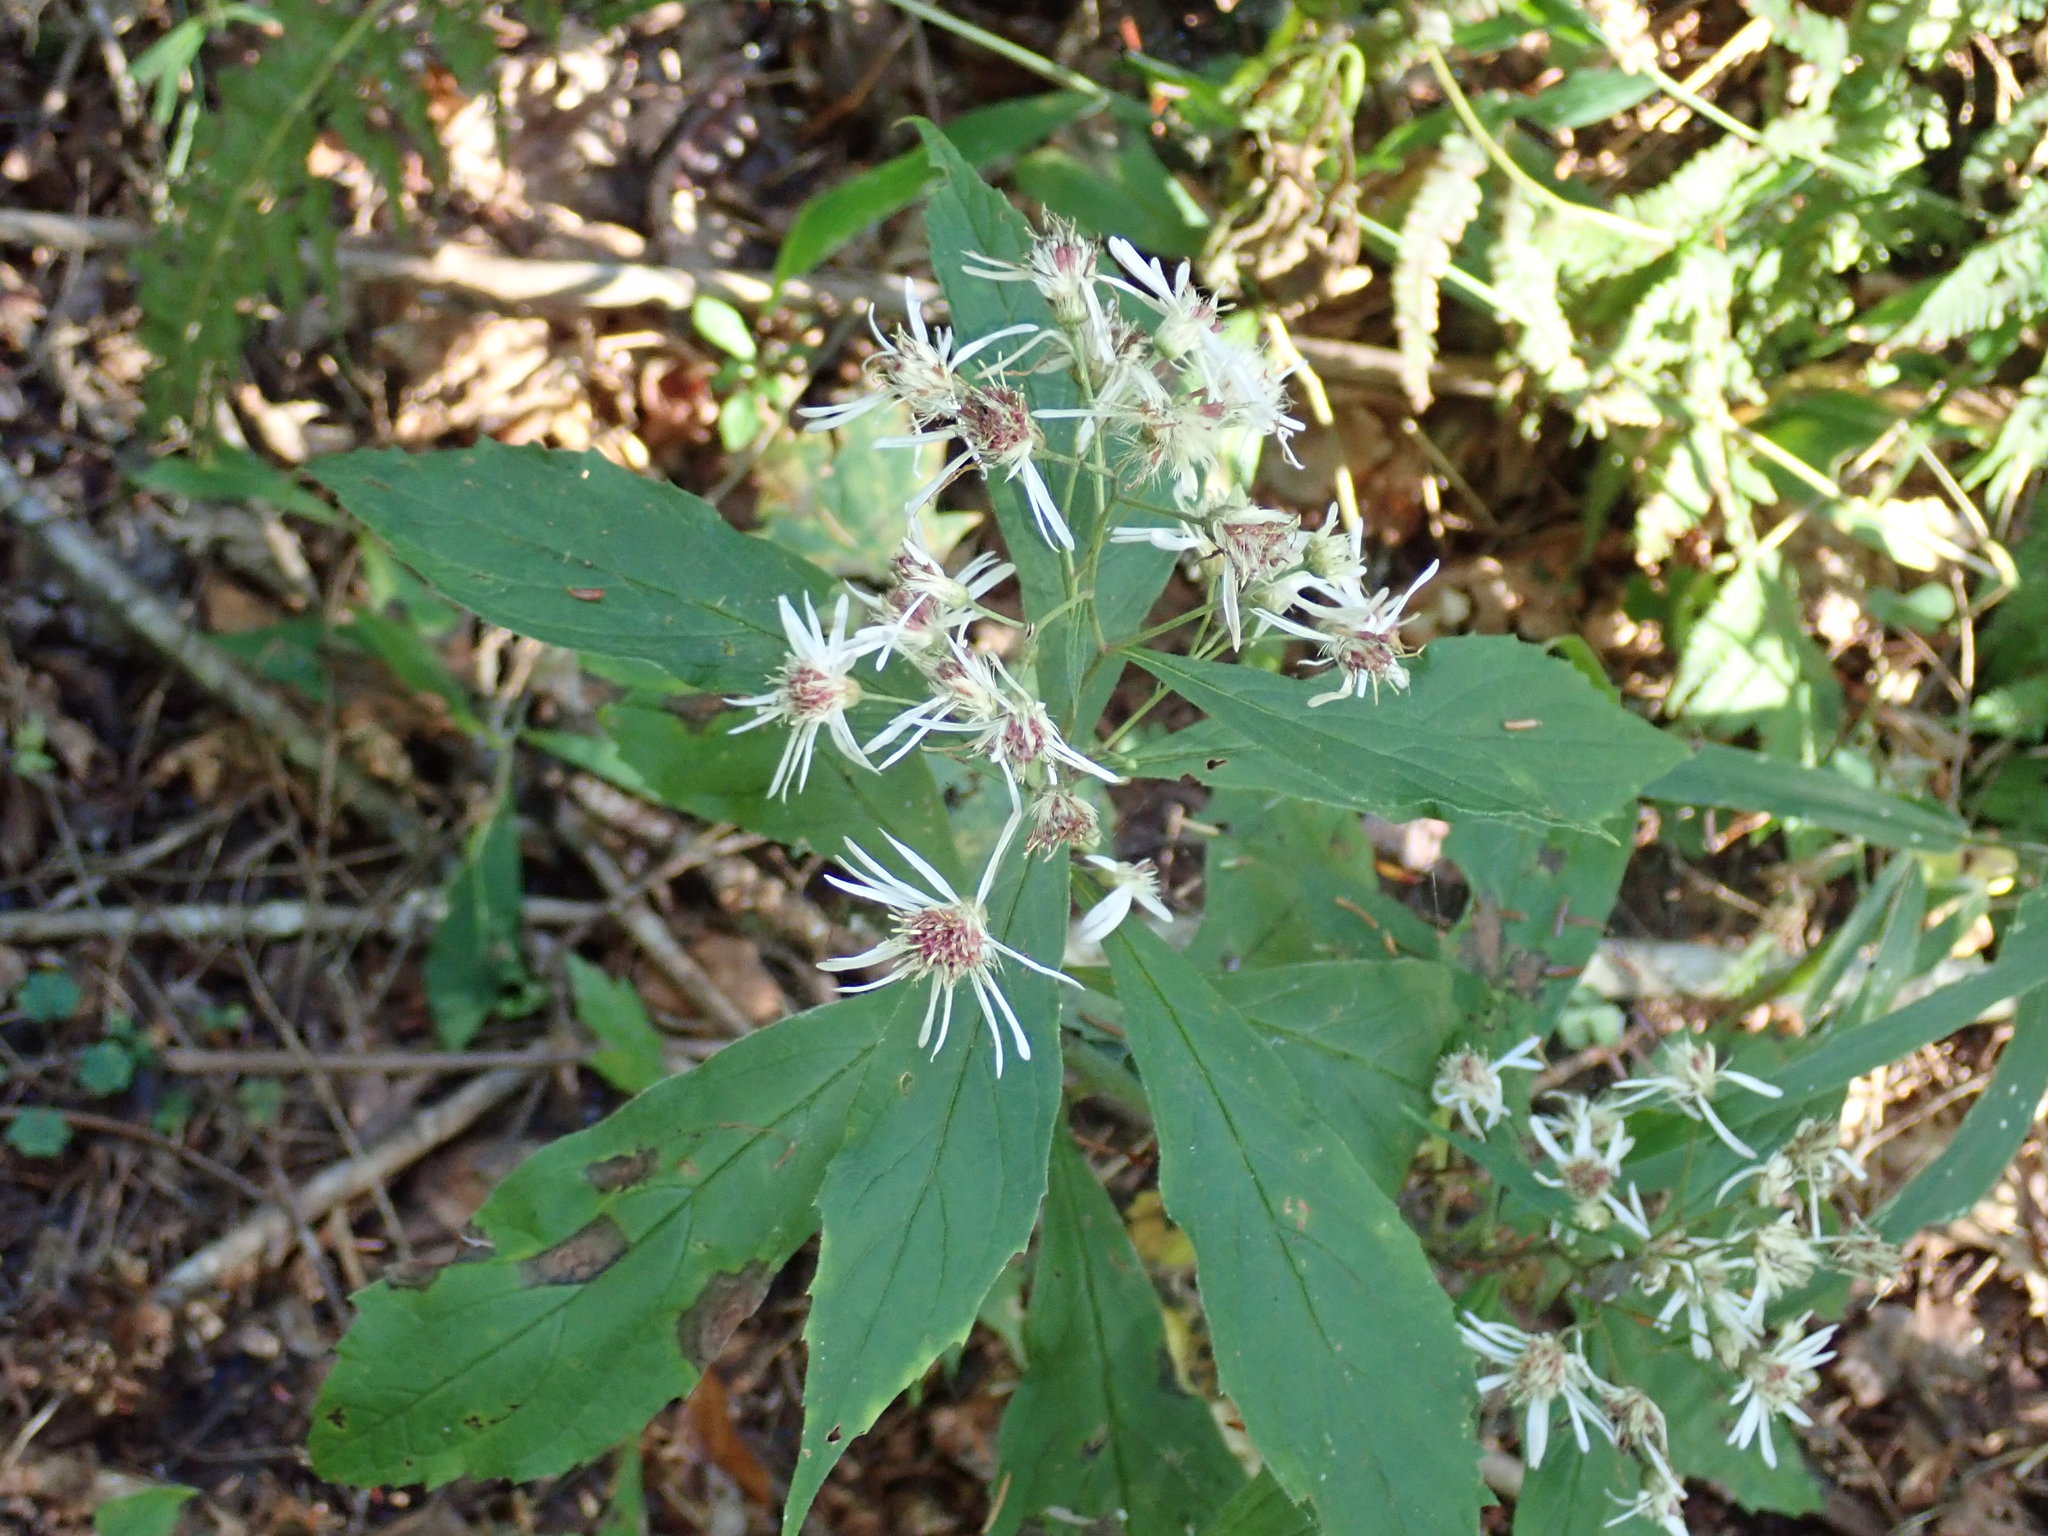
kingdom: Plantae
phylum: Tracheophyta
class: Magnoliopsida
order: Asterales
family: Asteraceae
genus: Oclemena
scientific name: Oclemena acuminata
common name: Mountain aster
